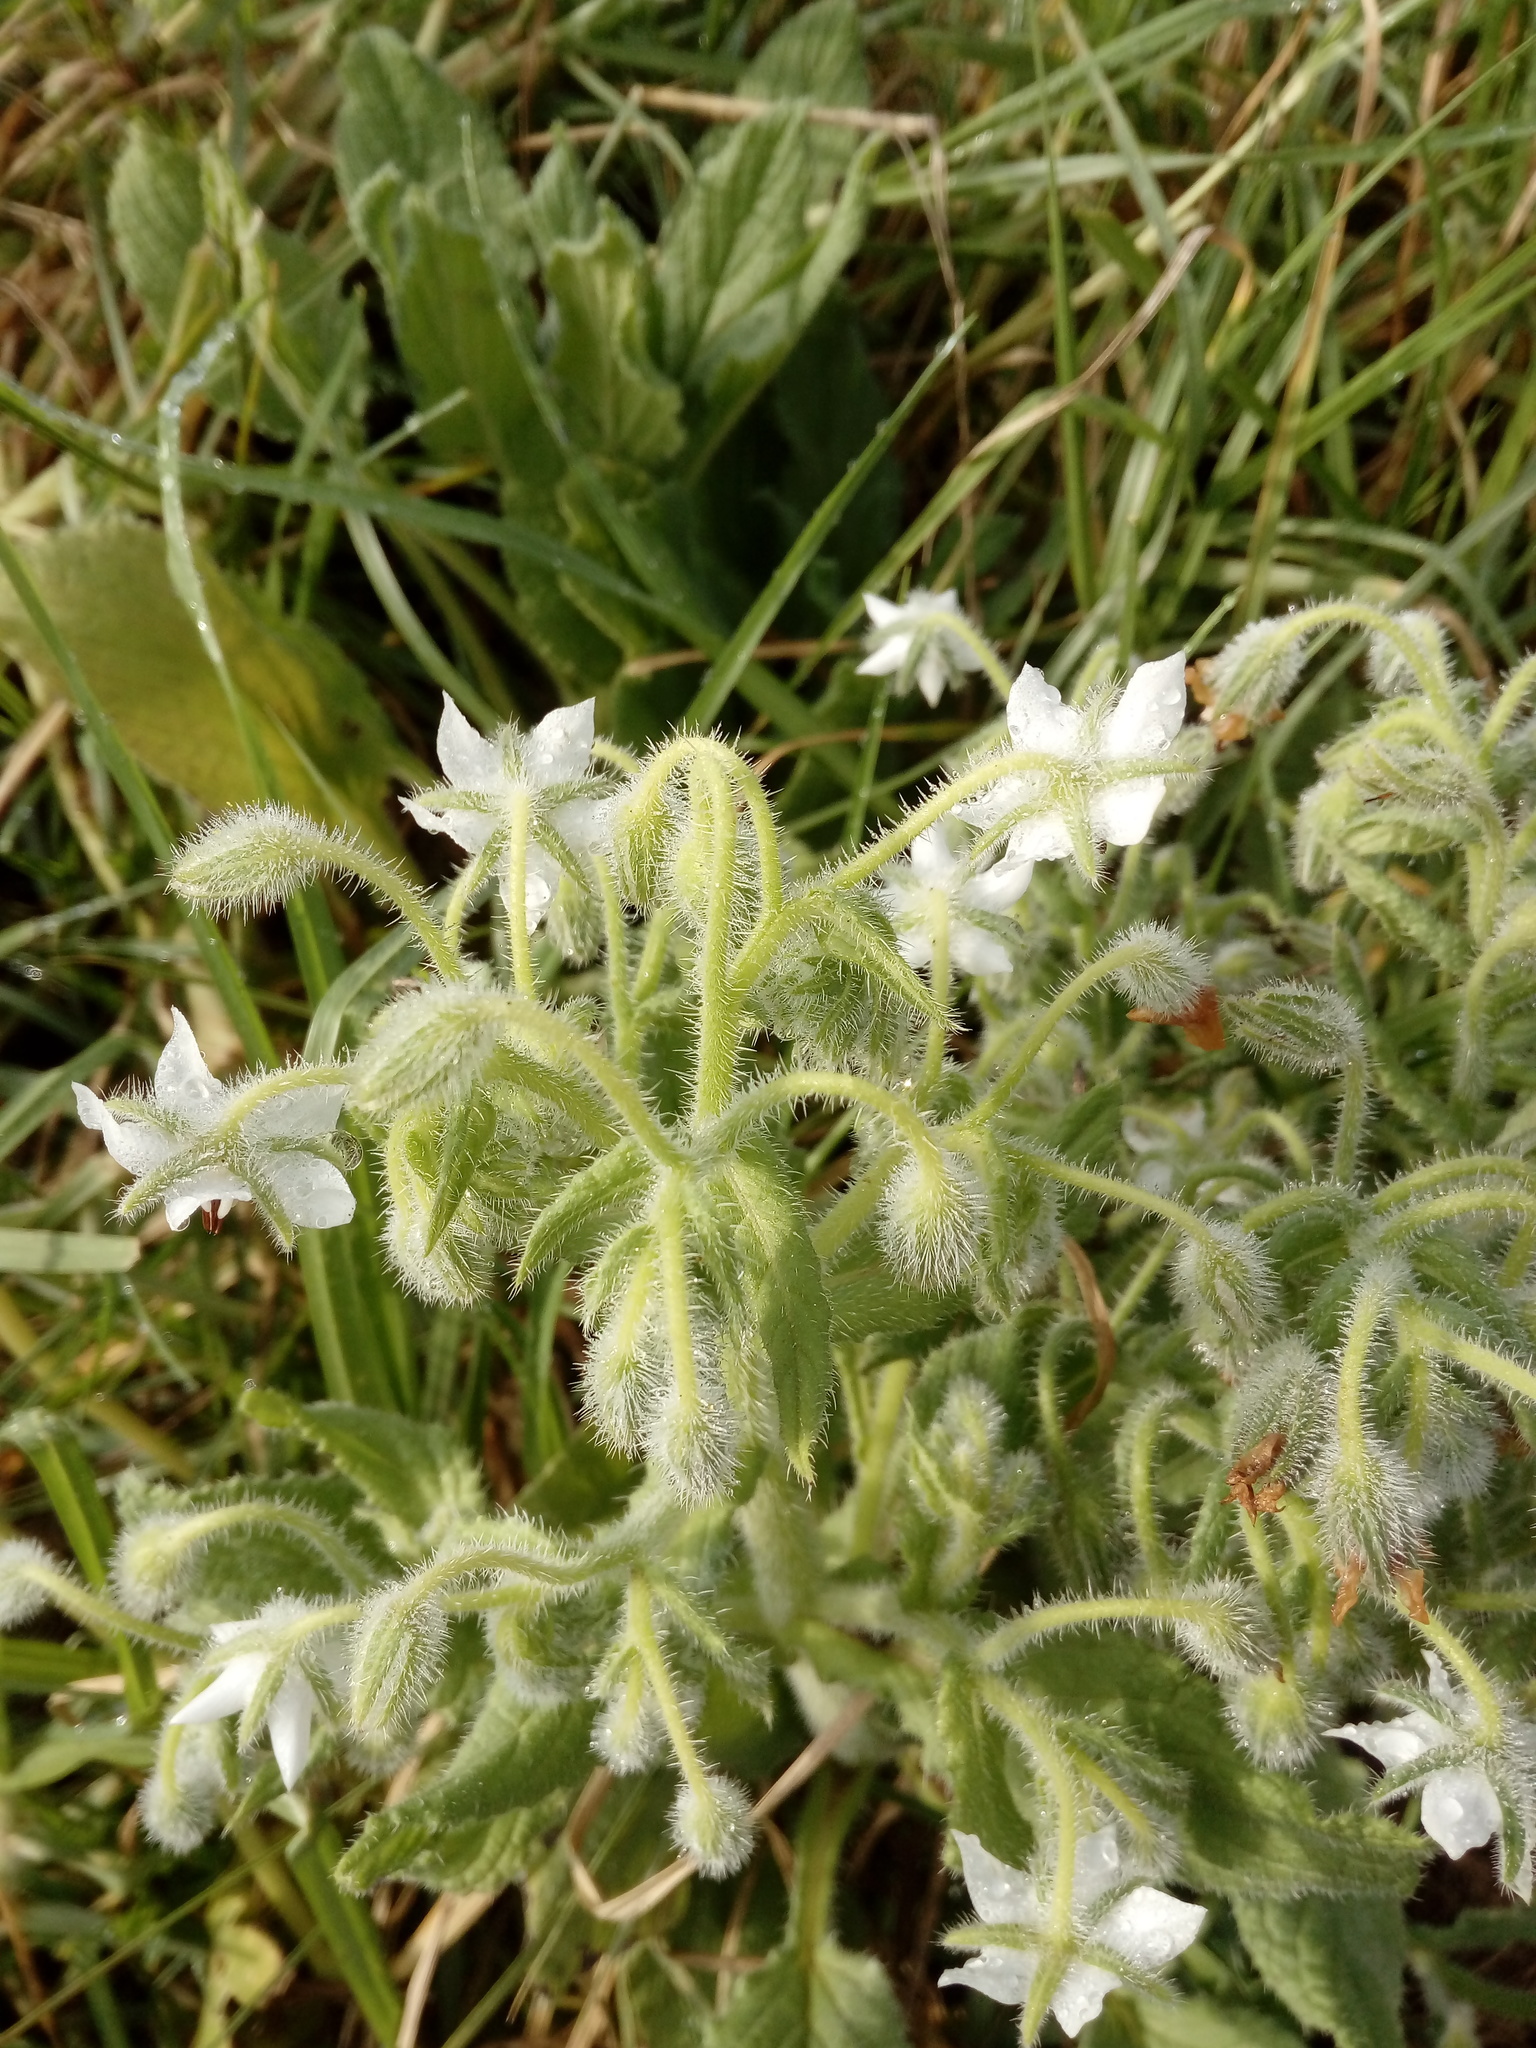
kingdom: Plantae
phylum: Tracheophyta
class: Magnoliopsida
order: Boraginales
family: Boraginaceae
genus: Borago
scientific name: Borago officinalis
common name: Borage
